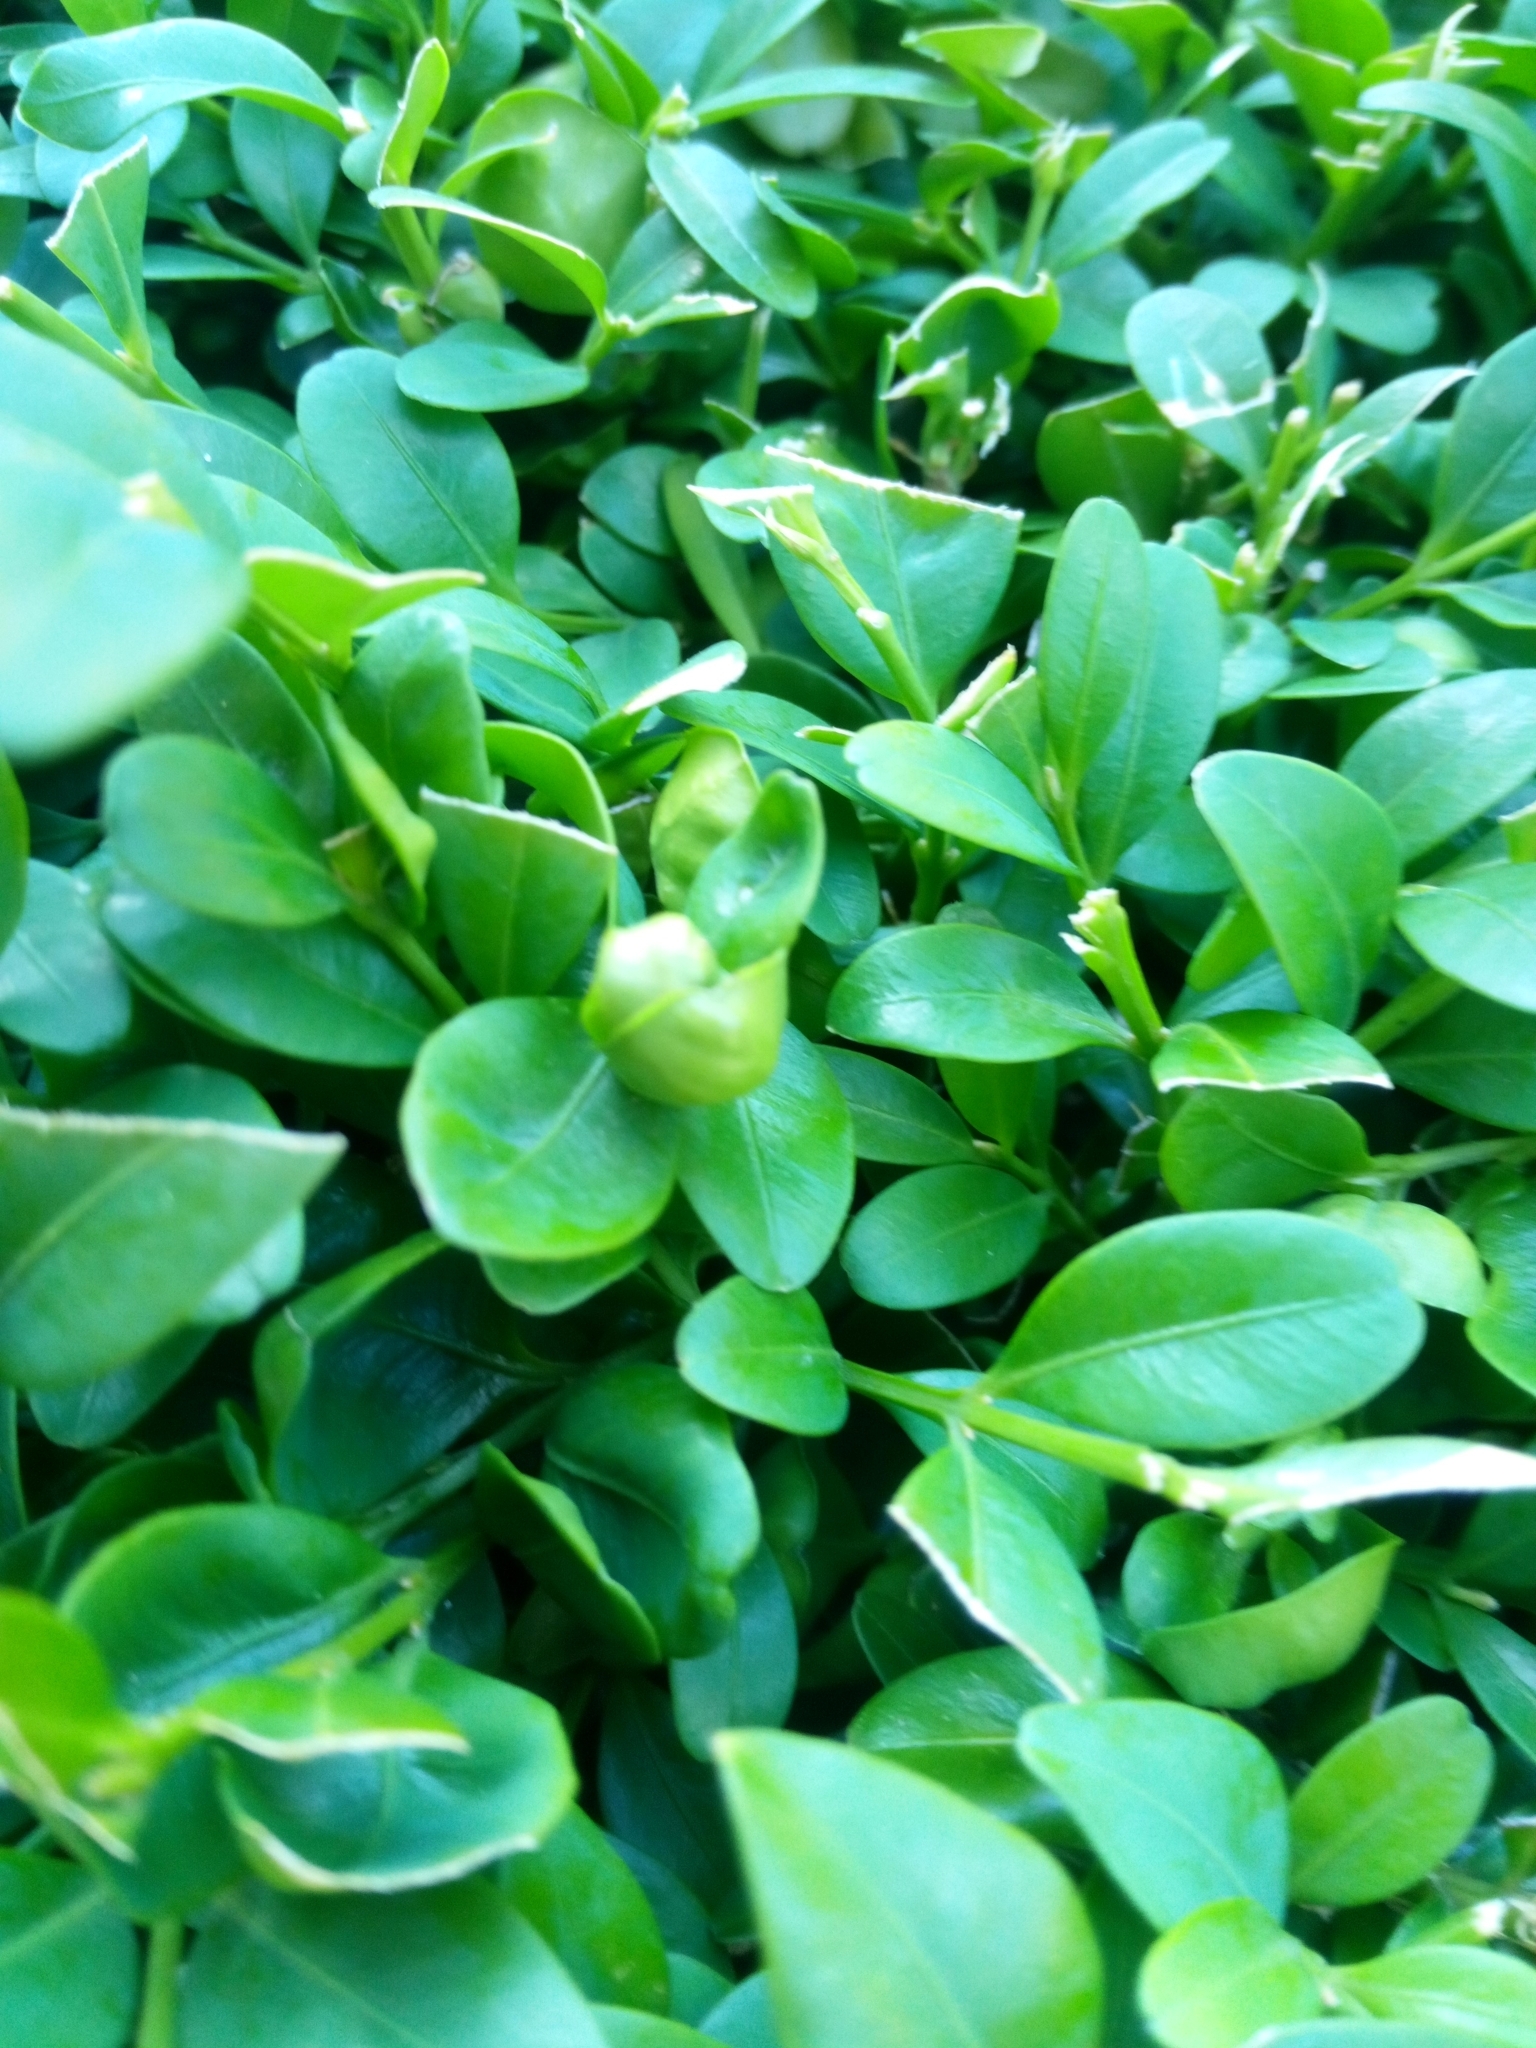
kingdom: Animalia
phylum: Arthropoda
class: Insecta
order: Hemiptera
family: Psyllidae
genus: Psylla
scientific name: Psylla buxi
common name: Boxwood psyllid
